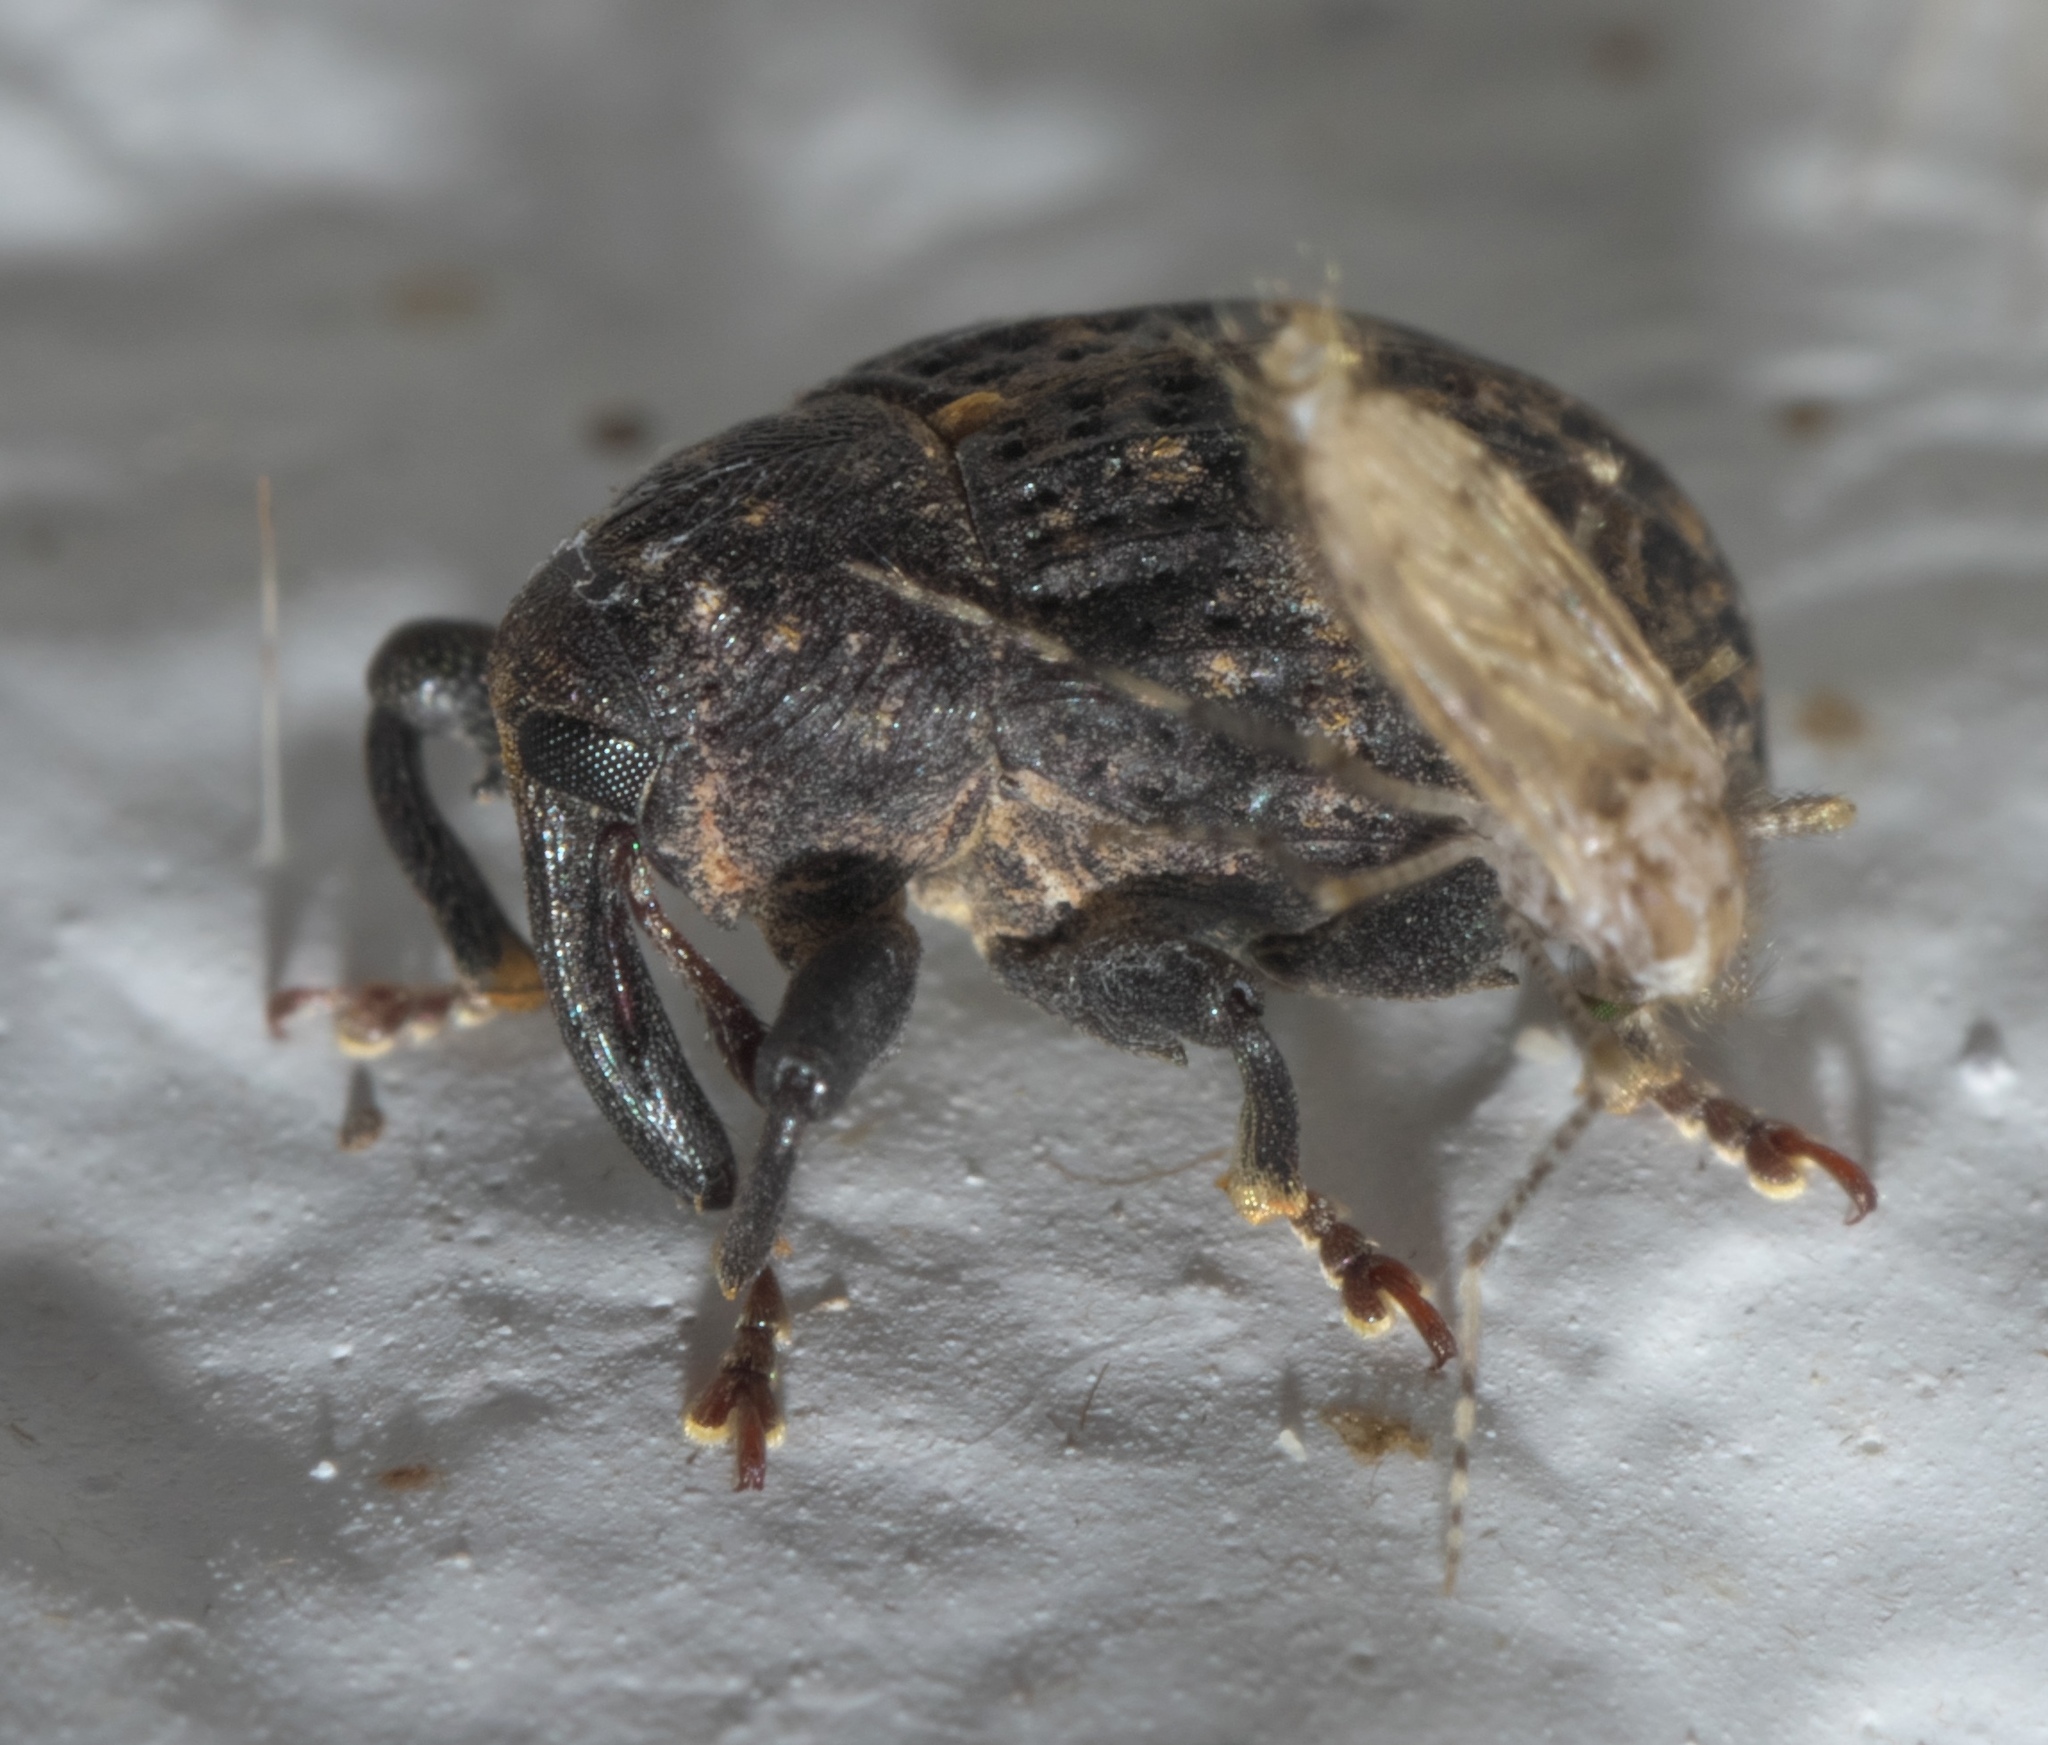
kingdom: Animalia
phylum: Arthropoda
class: Insecta
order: Coleoptera
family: Curculionidae
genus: Rhyssomatus
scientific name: Rhyssomatus palmacollis
